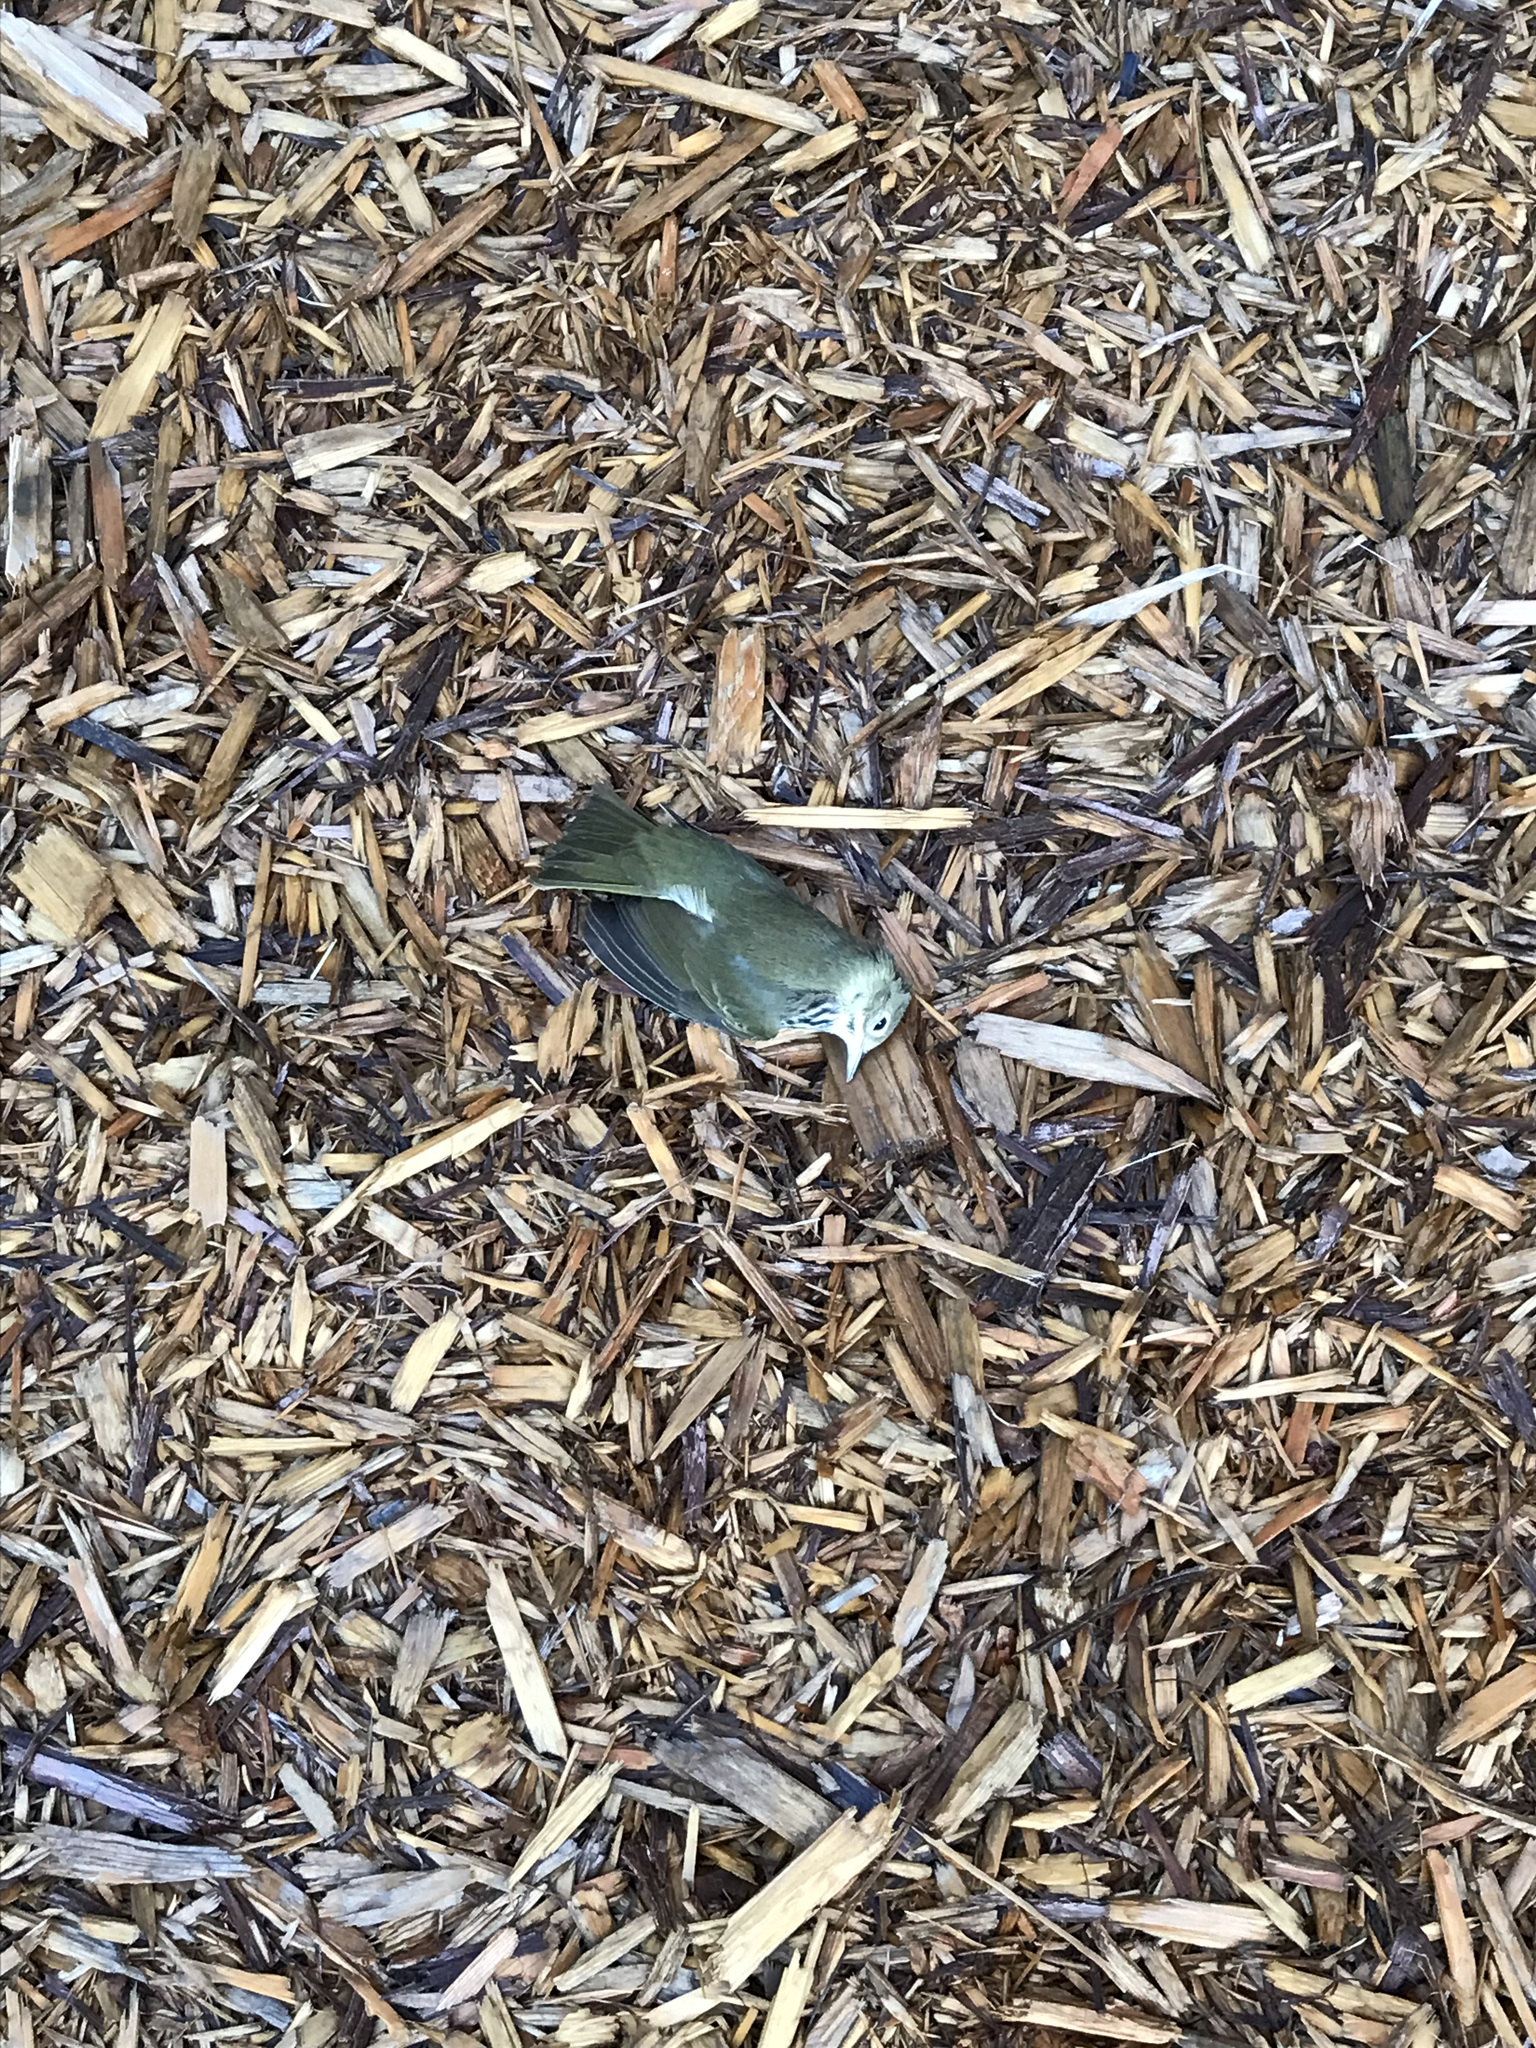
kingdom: Animalia
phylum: Chordata
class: Aves
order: Passeriformes
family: Parulidae
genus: Seiurus
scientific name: Seiurus aurocapilla
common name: Ovenbird
